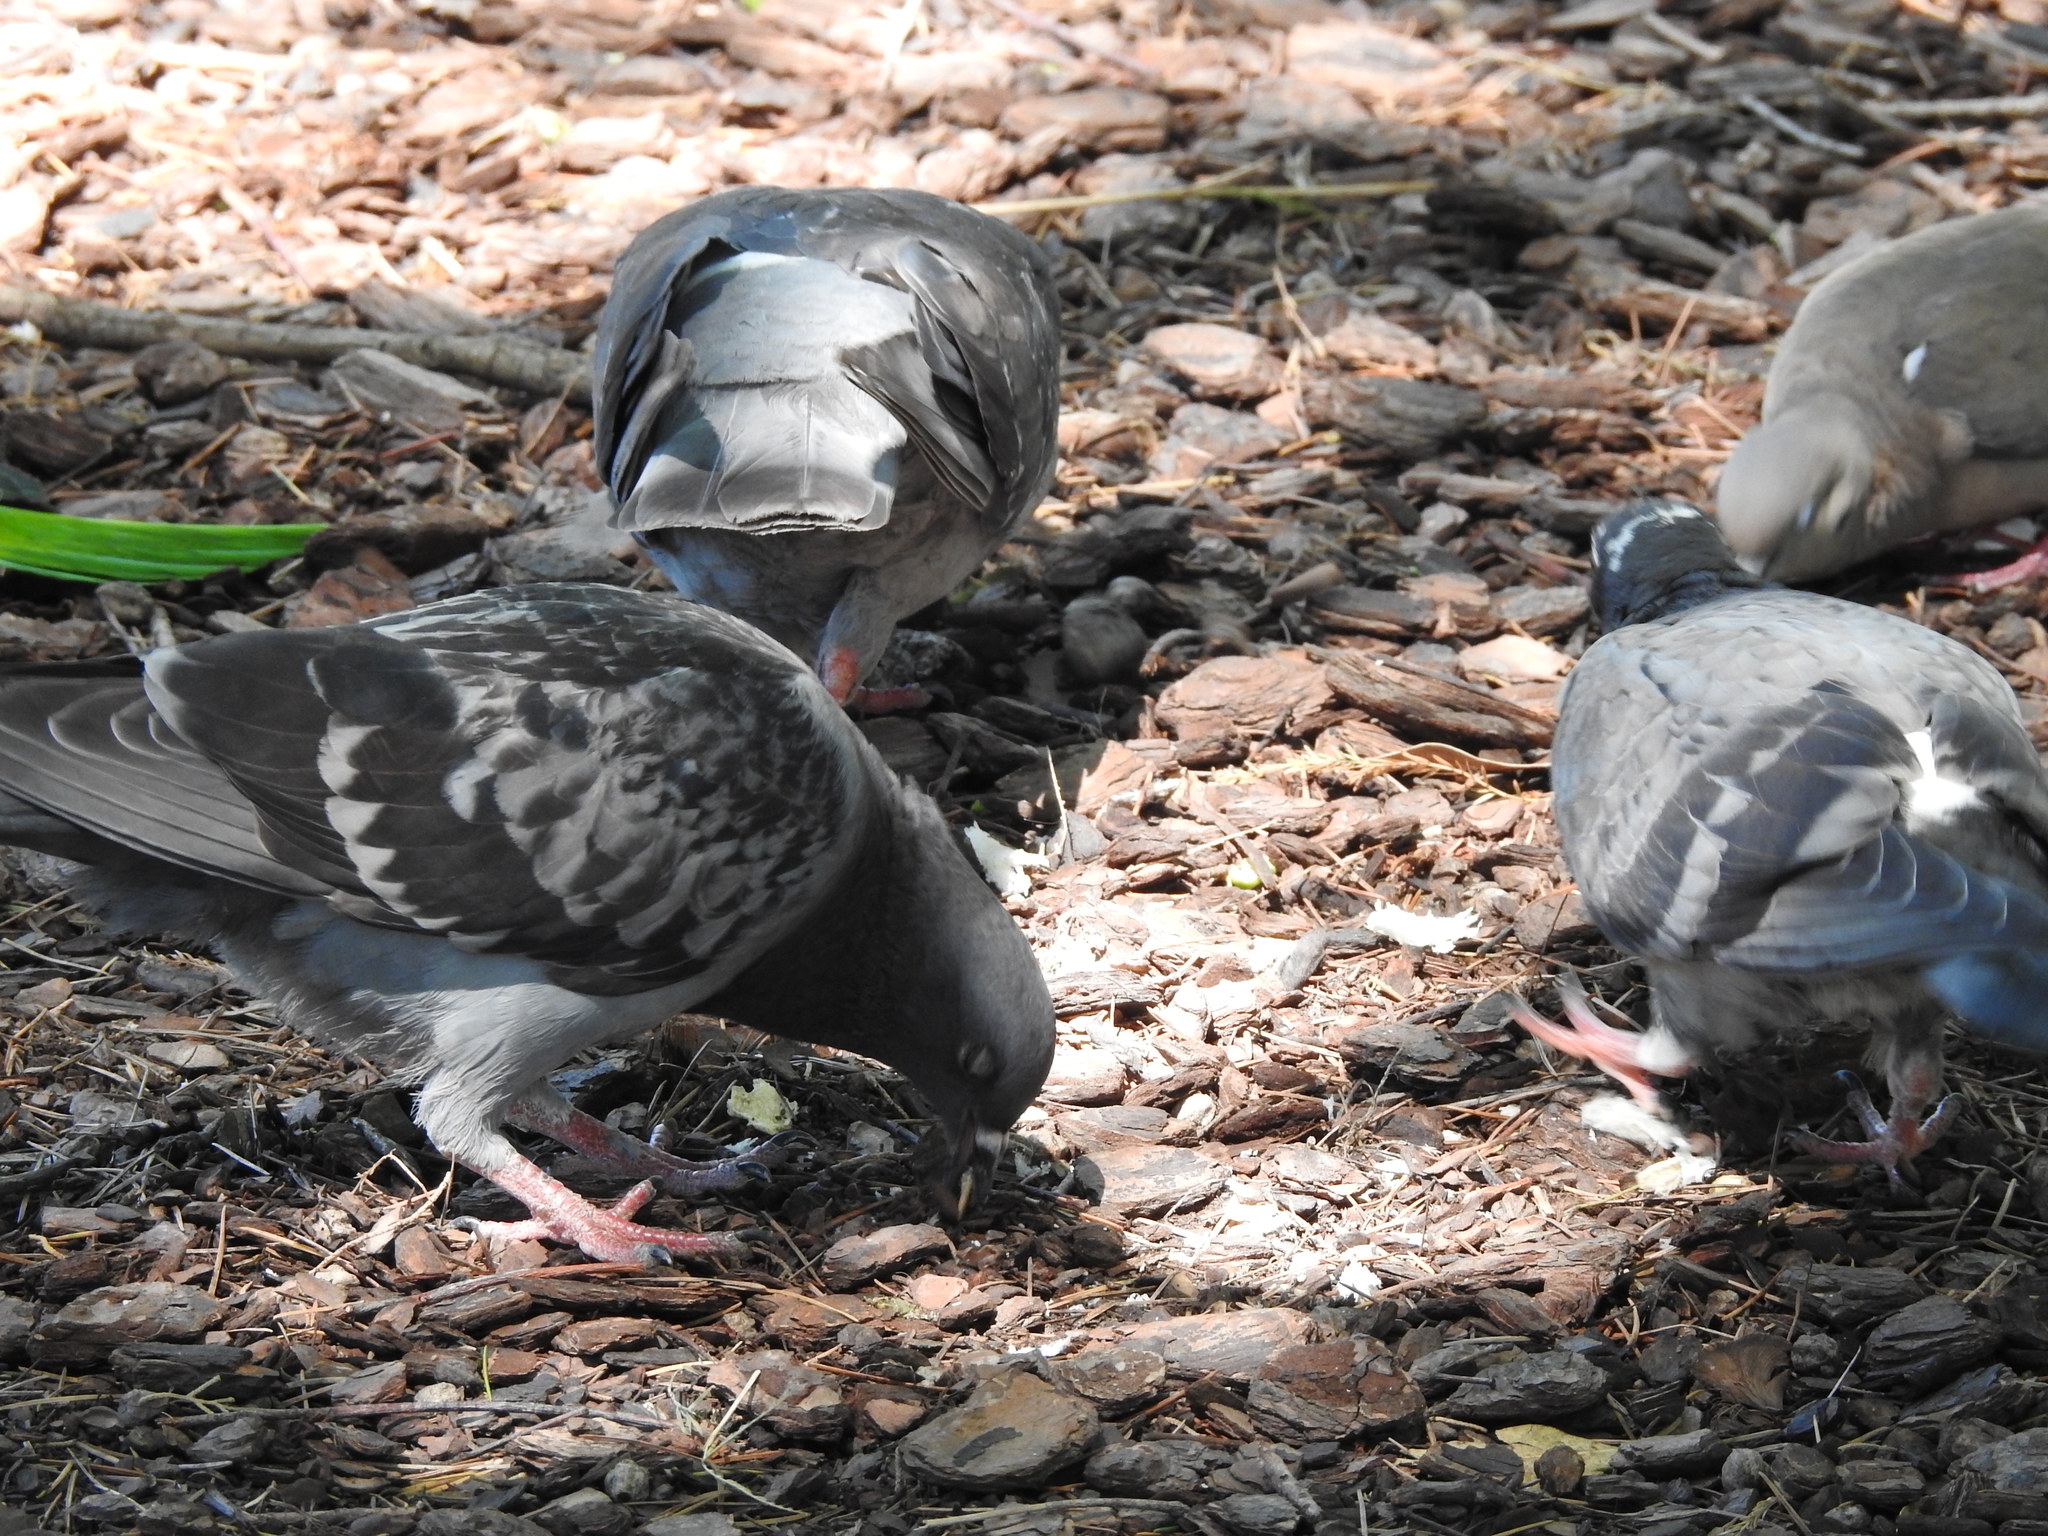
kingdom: Animalia
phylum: Chordata
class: Aves
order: Columbiformes
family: Columbidae
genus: Columba
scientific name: Columba livia
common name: Rock pigeon
